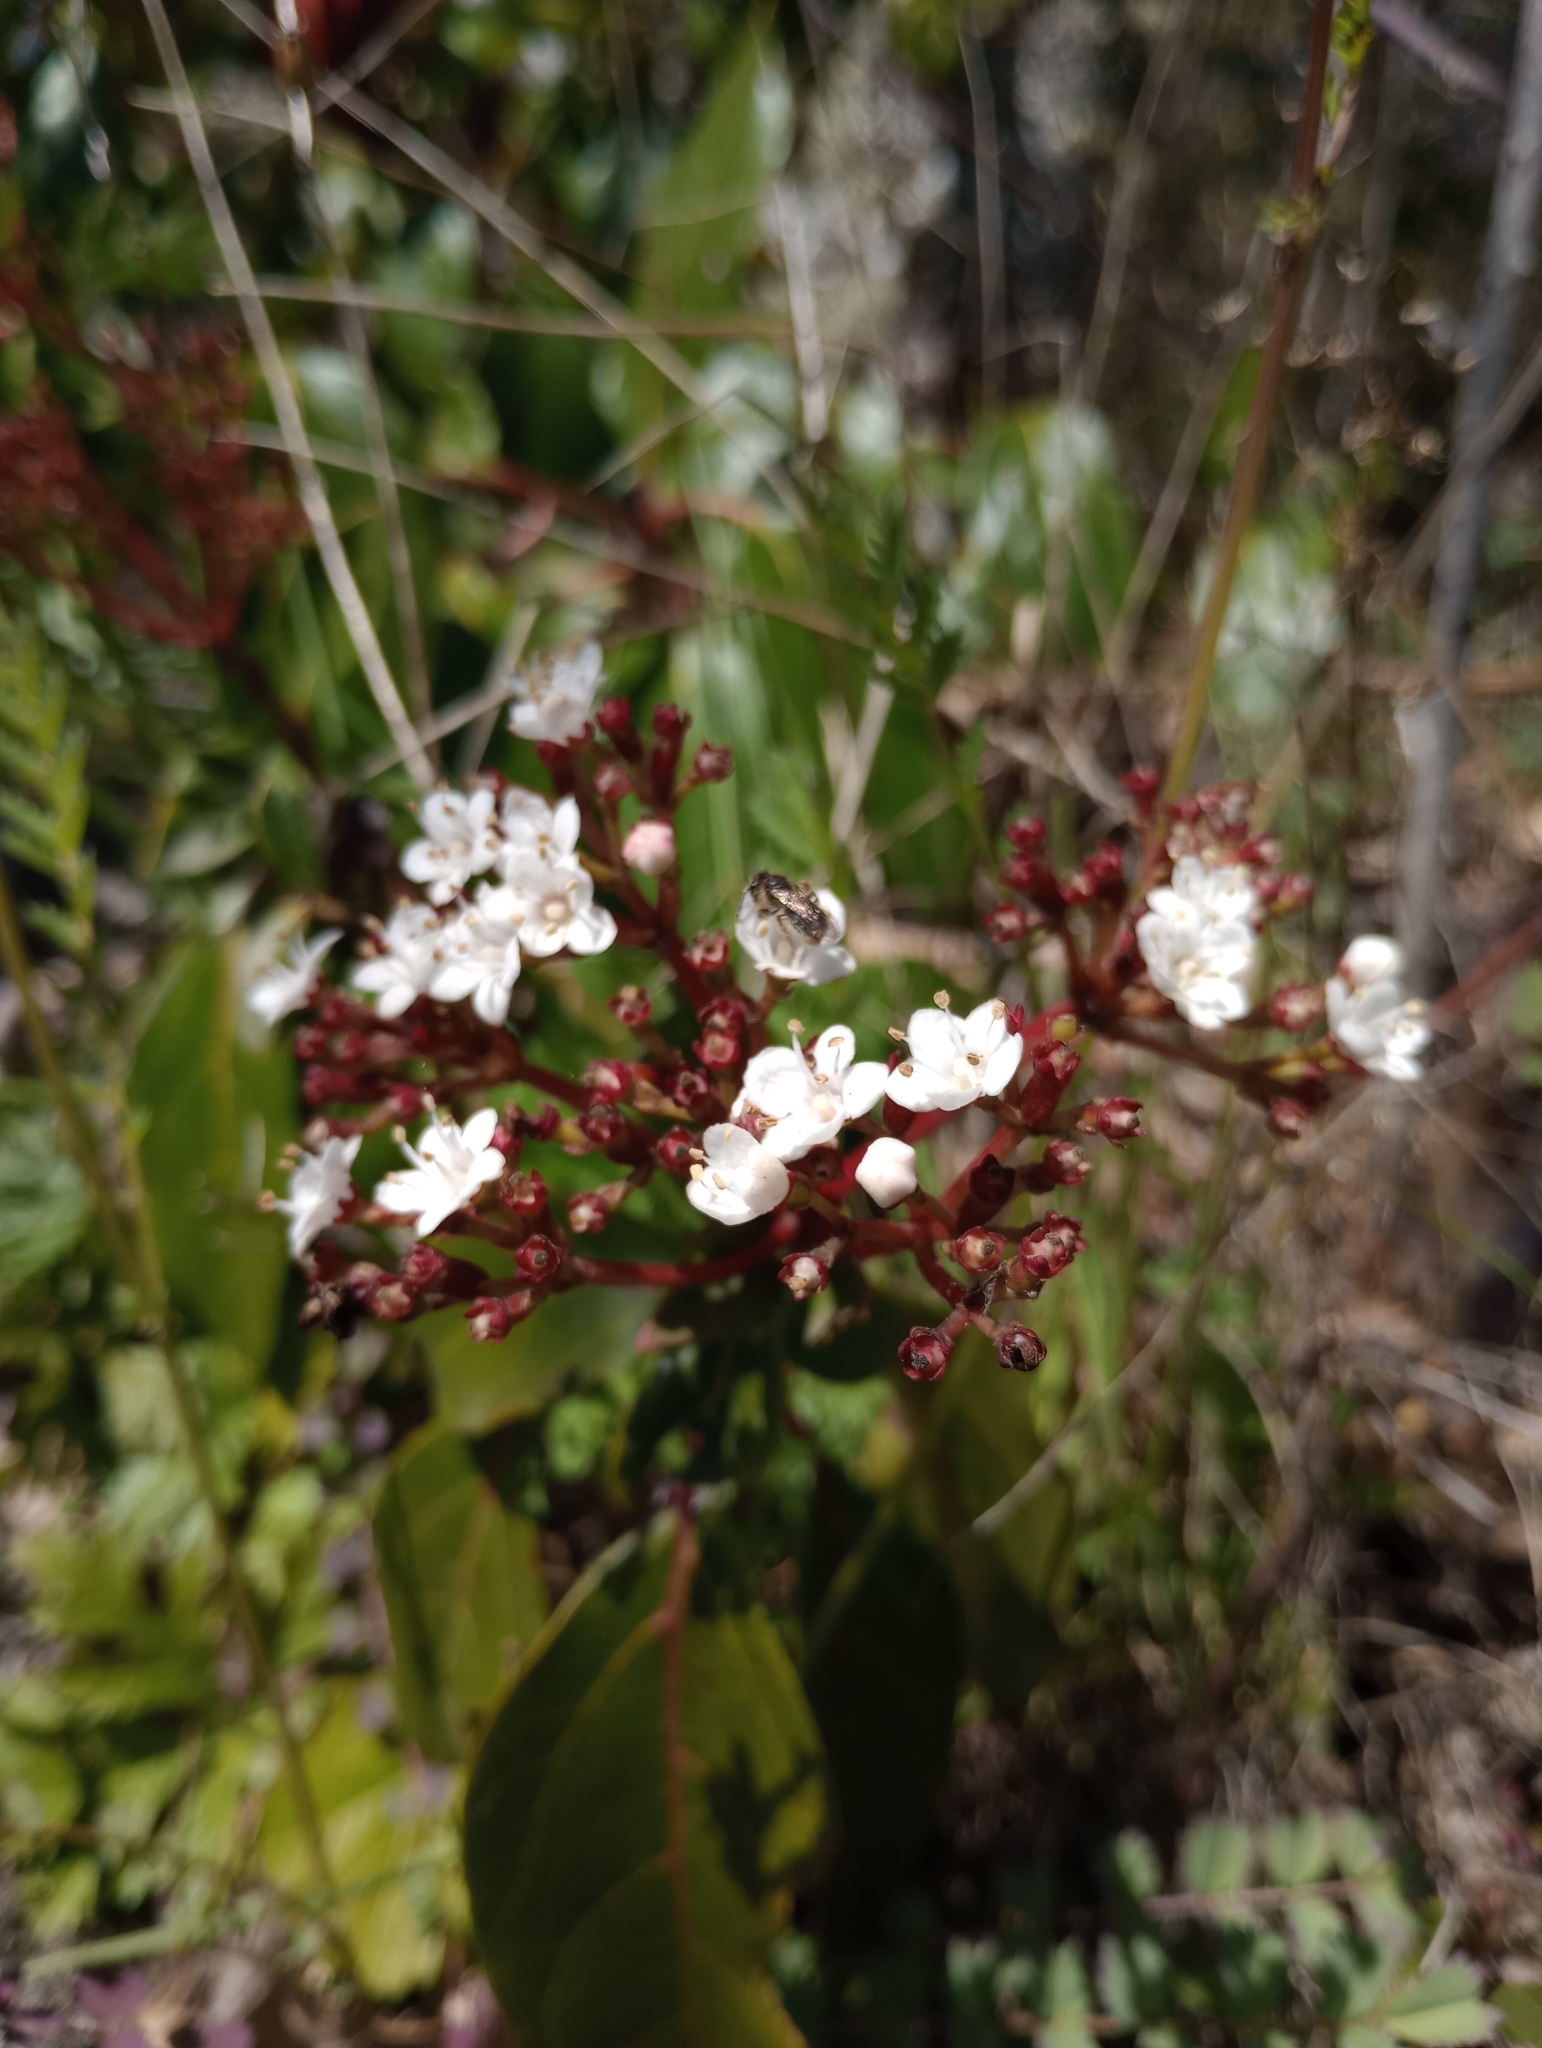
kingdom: Plantae
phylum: Tracheophyta
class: Magnoliopsida
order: Dipsacales
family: Viburnaceae
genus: Viburnum
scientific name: Viburnum tinus
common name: Laurustinus
